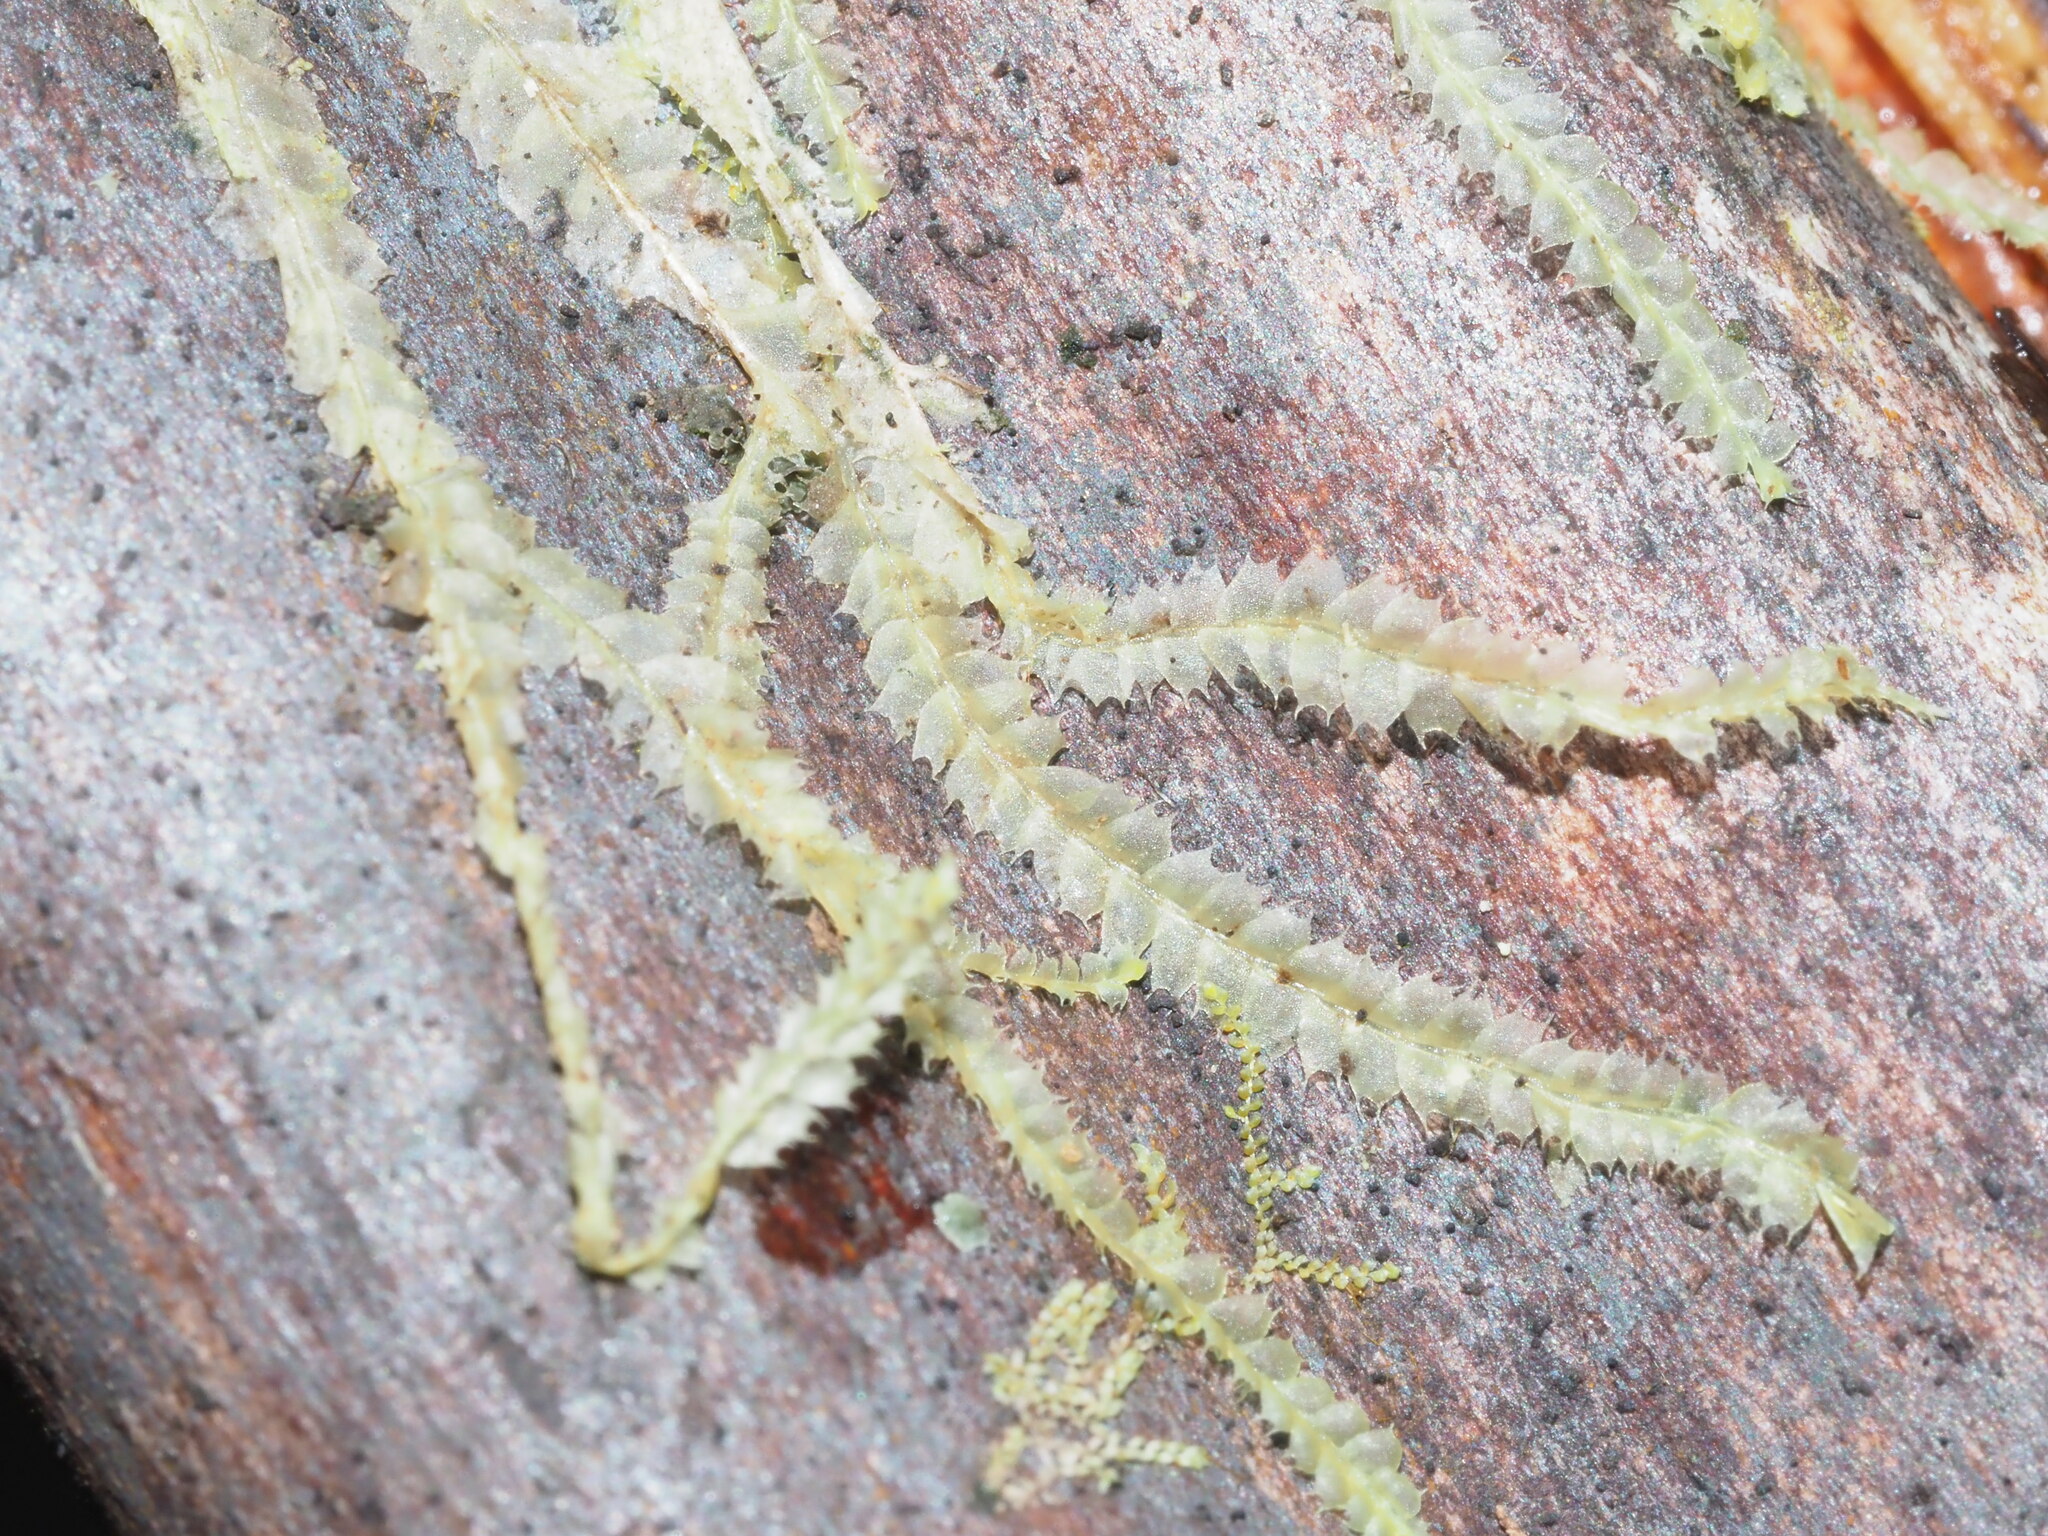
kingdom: Plantae
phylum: Marchantiophyta
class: Jungermanniopsida
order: Jungermanniales
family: Lophocoleaceae
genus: Lophocolea
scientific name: Lophocolea bicuspidata
